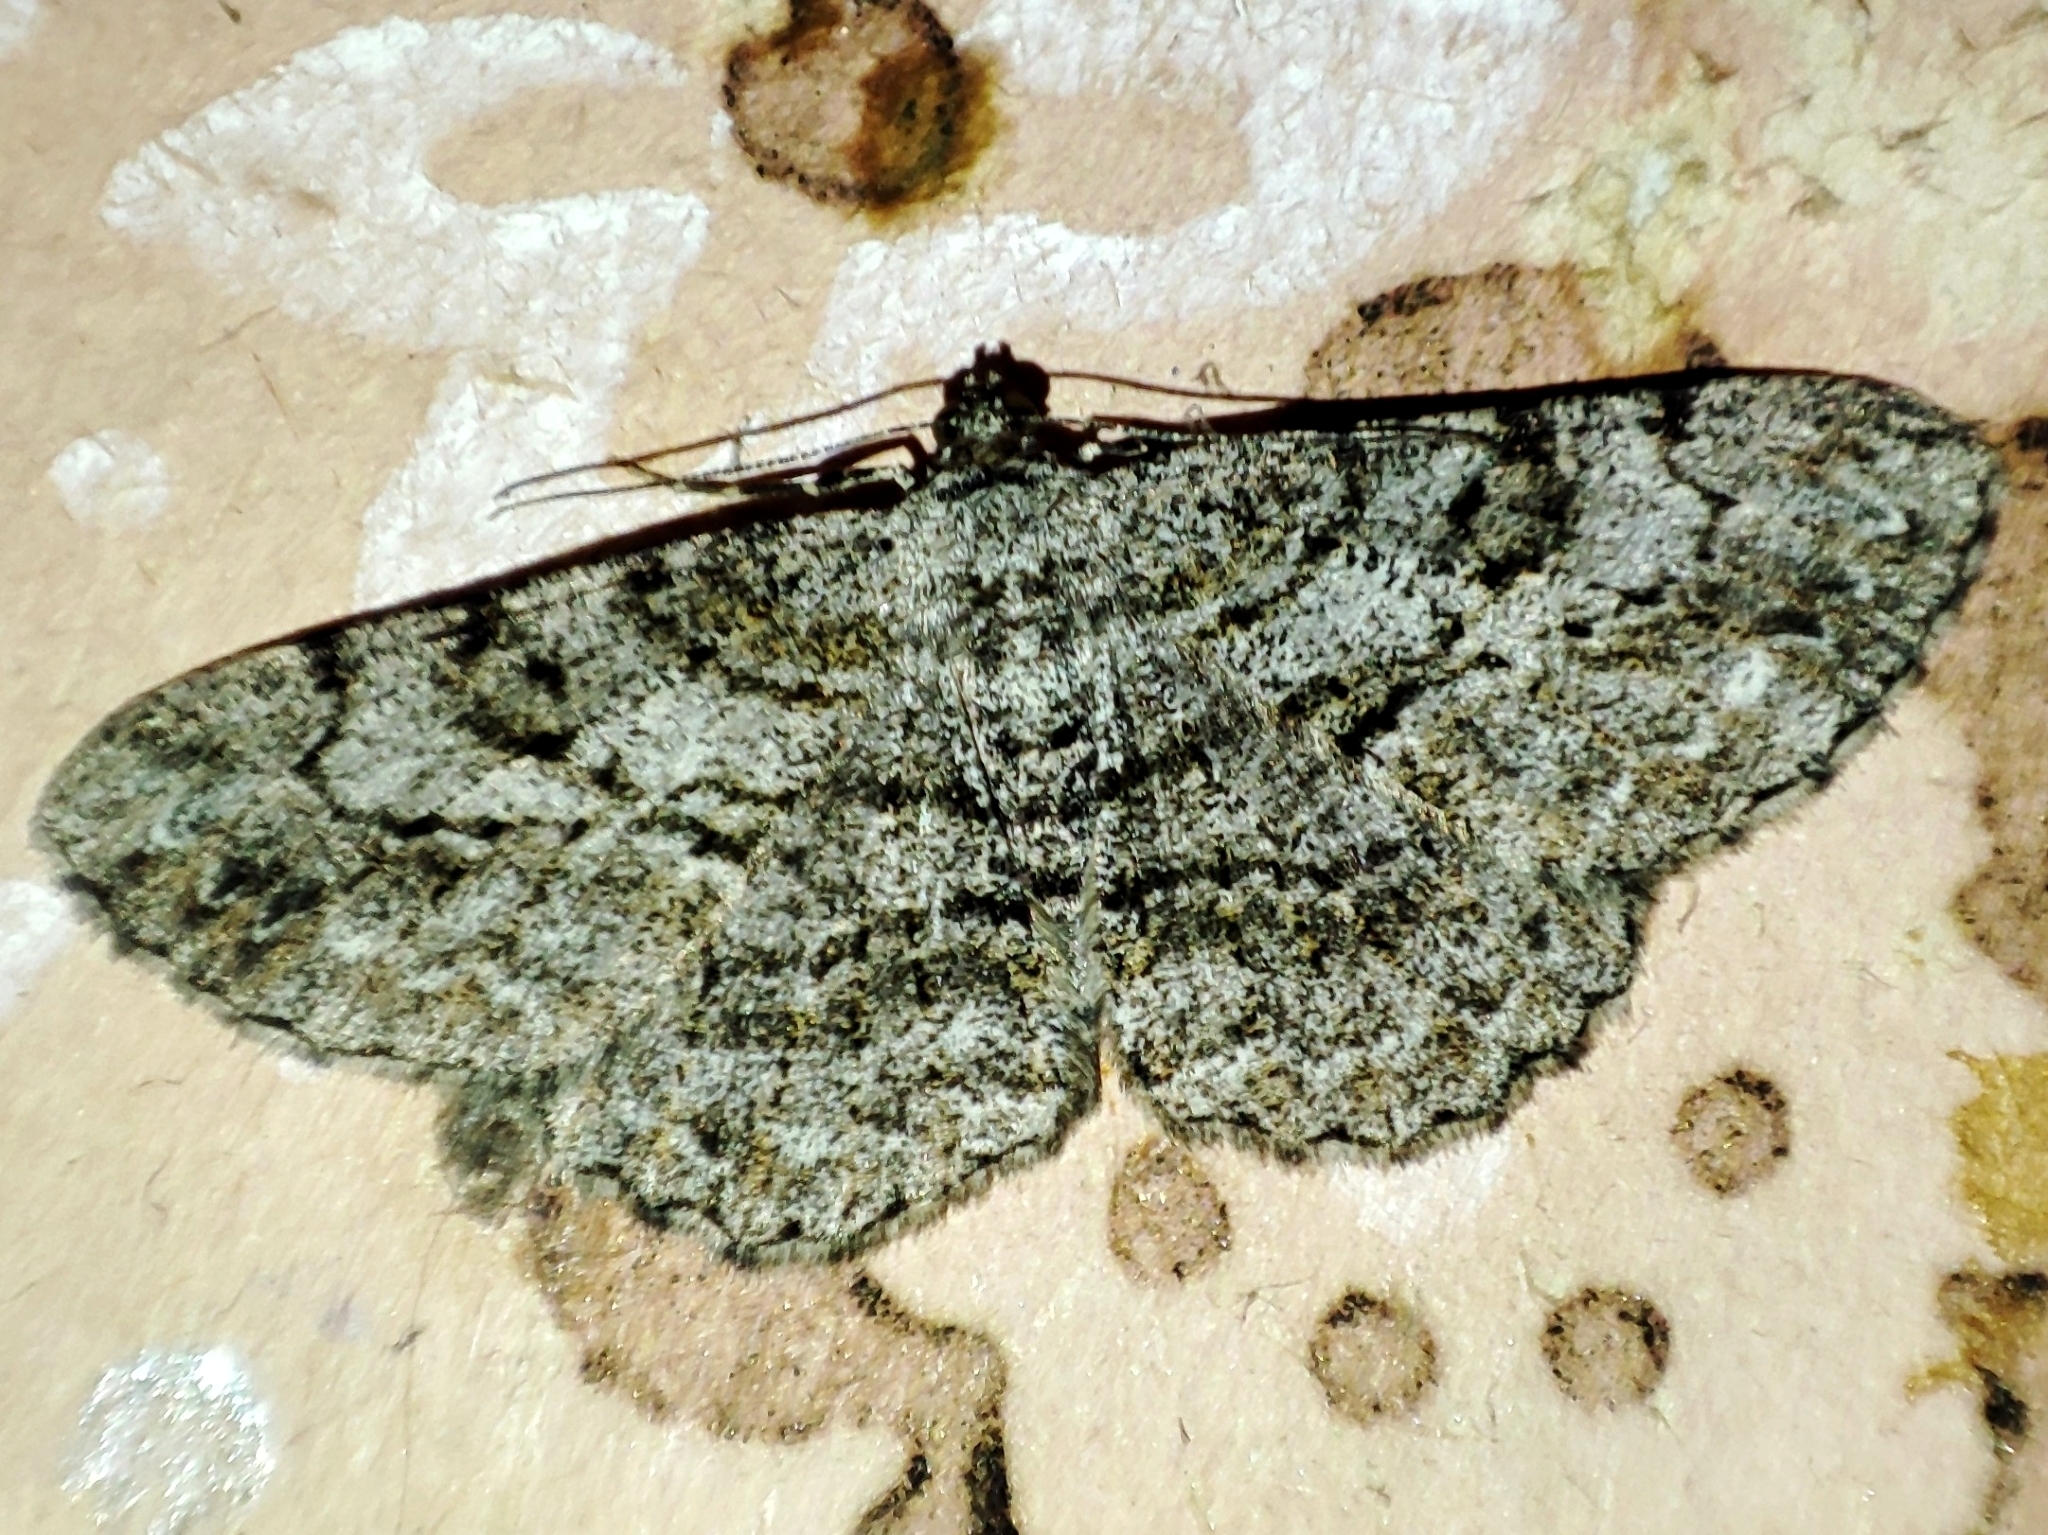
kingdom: Animalia
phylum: Arthropoda
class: Insecta
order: Lepidoptera
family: Geometridae
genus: Peribatodes
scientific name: Peribatodes rhomboidaria
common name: Willow beauty
